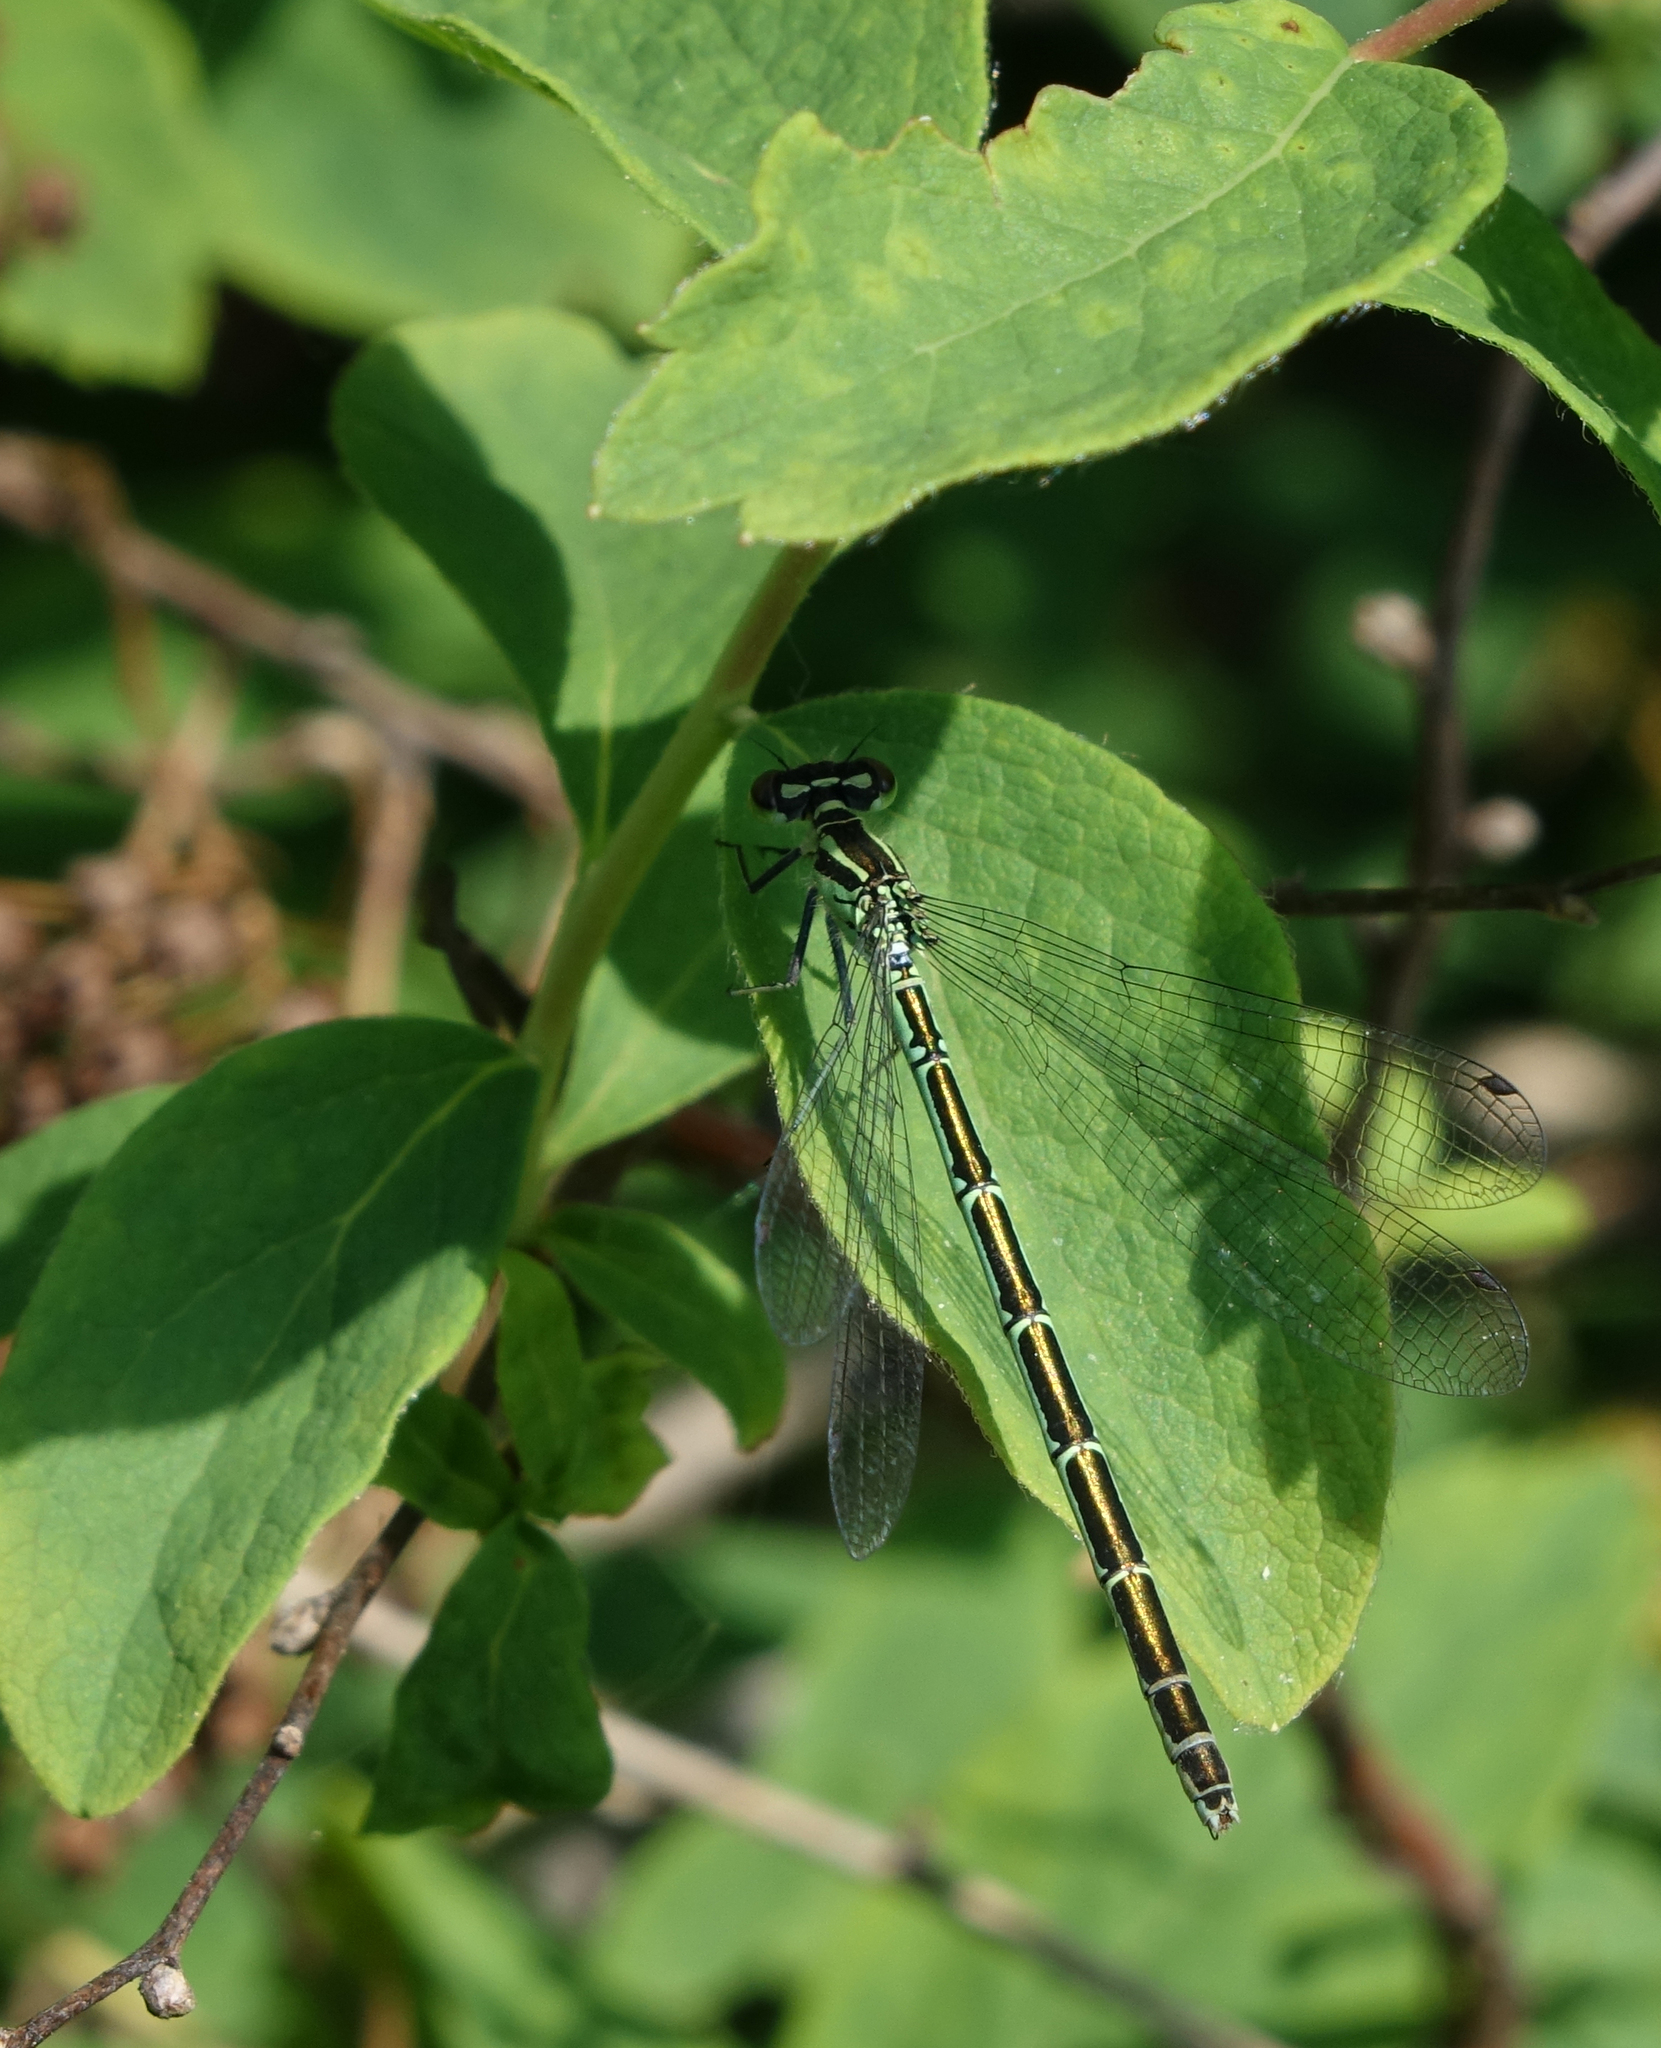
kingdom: Animalia
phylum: Arthropoda
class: Insecta
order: Odonata
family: Coenagrionidae
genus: Coenagrion
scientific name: Coenagrion hastulatum
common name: Spearhead bluet
